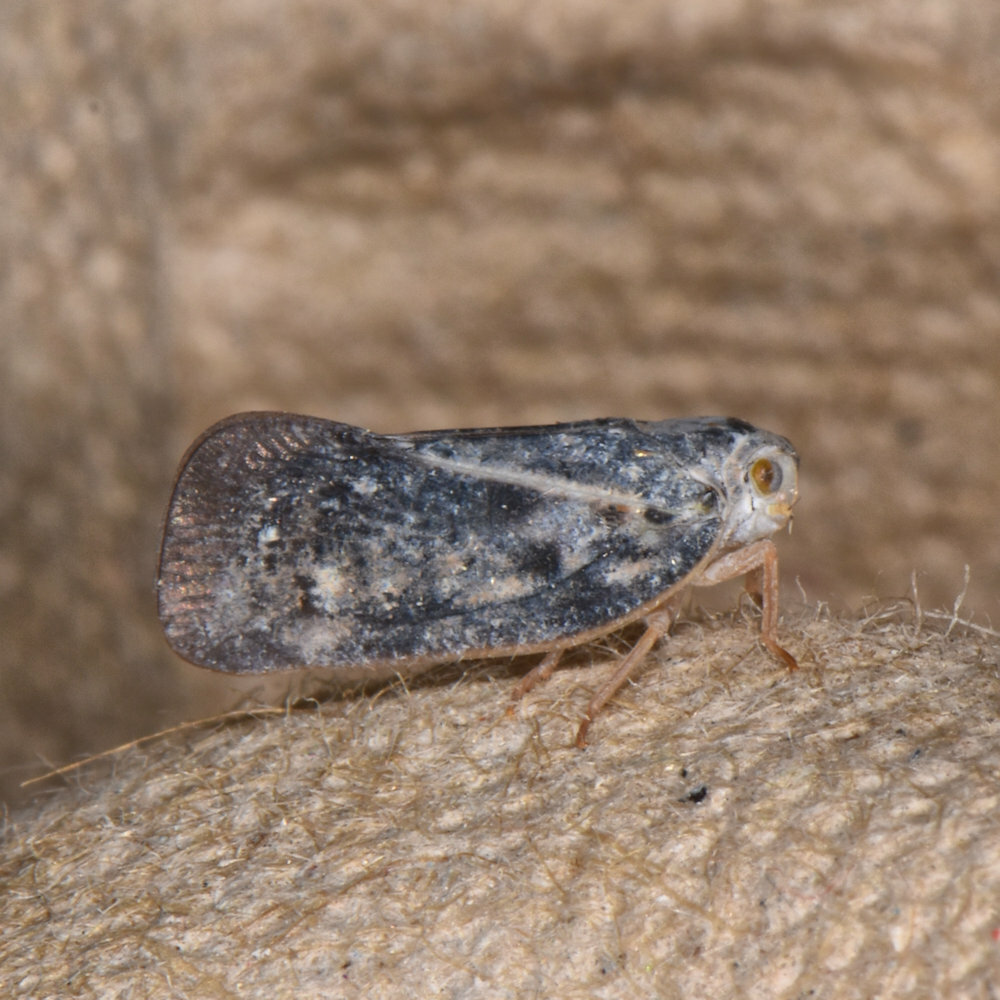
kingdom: Animalia
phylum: Arthropoda
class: Insecta
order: Hemiptera
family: Flatidae
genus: Metcalfa
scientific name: Metcalfa pruinosa
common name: Citrus flatid planthopper
